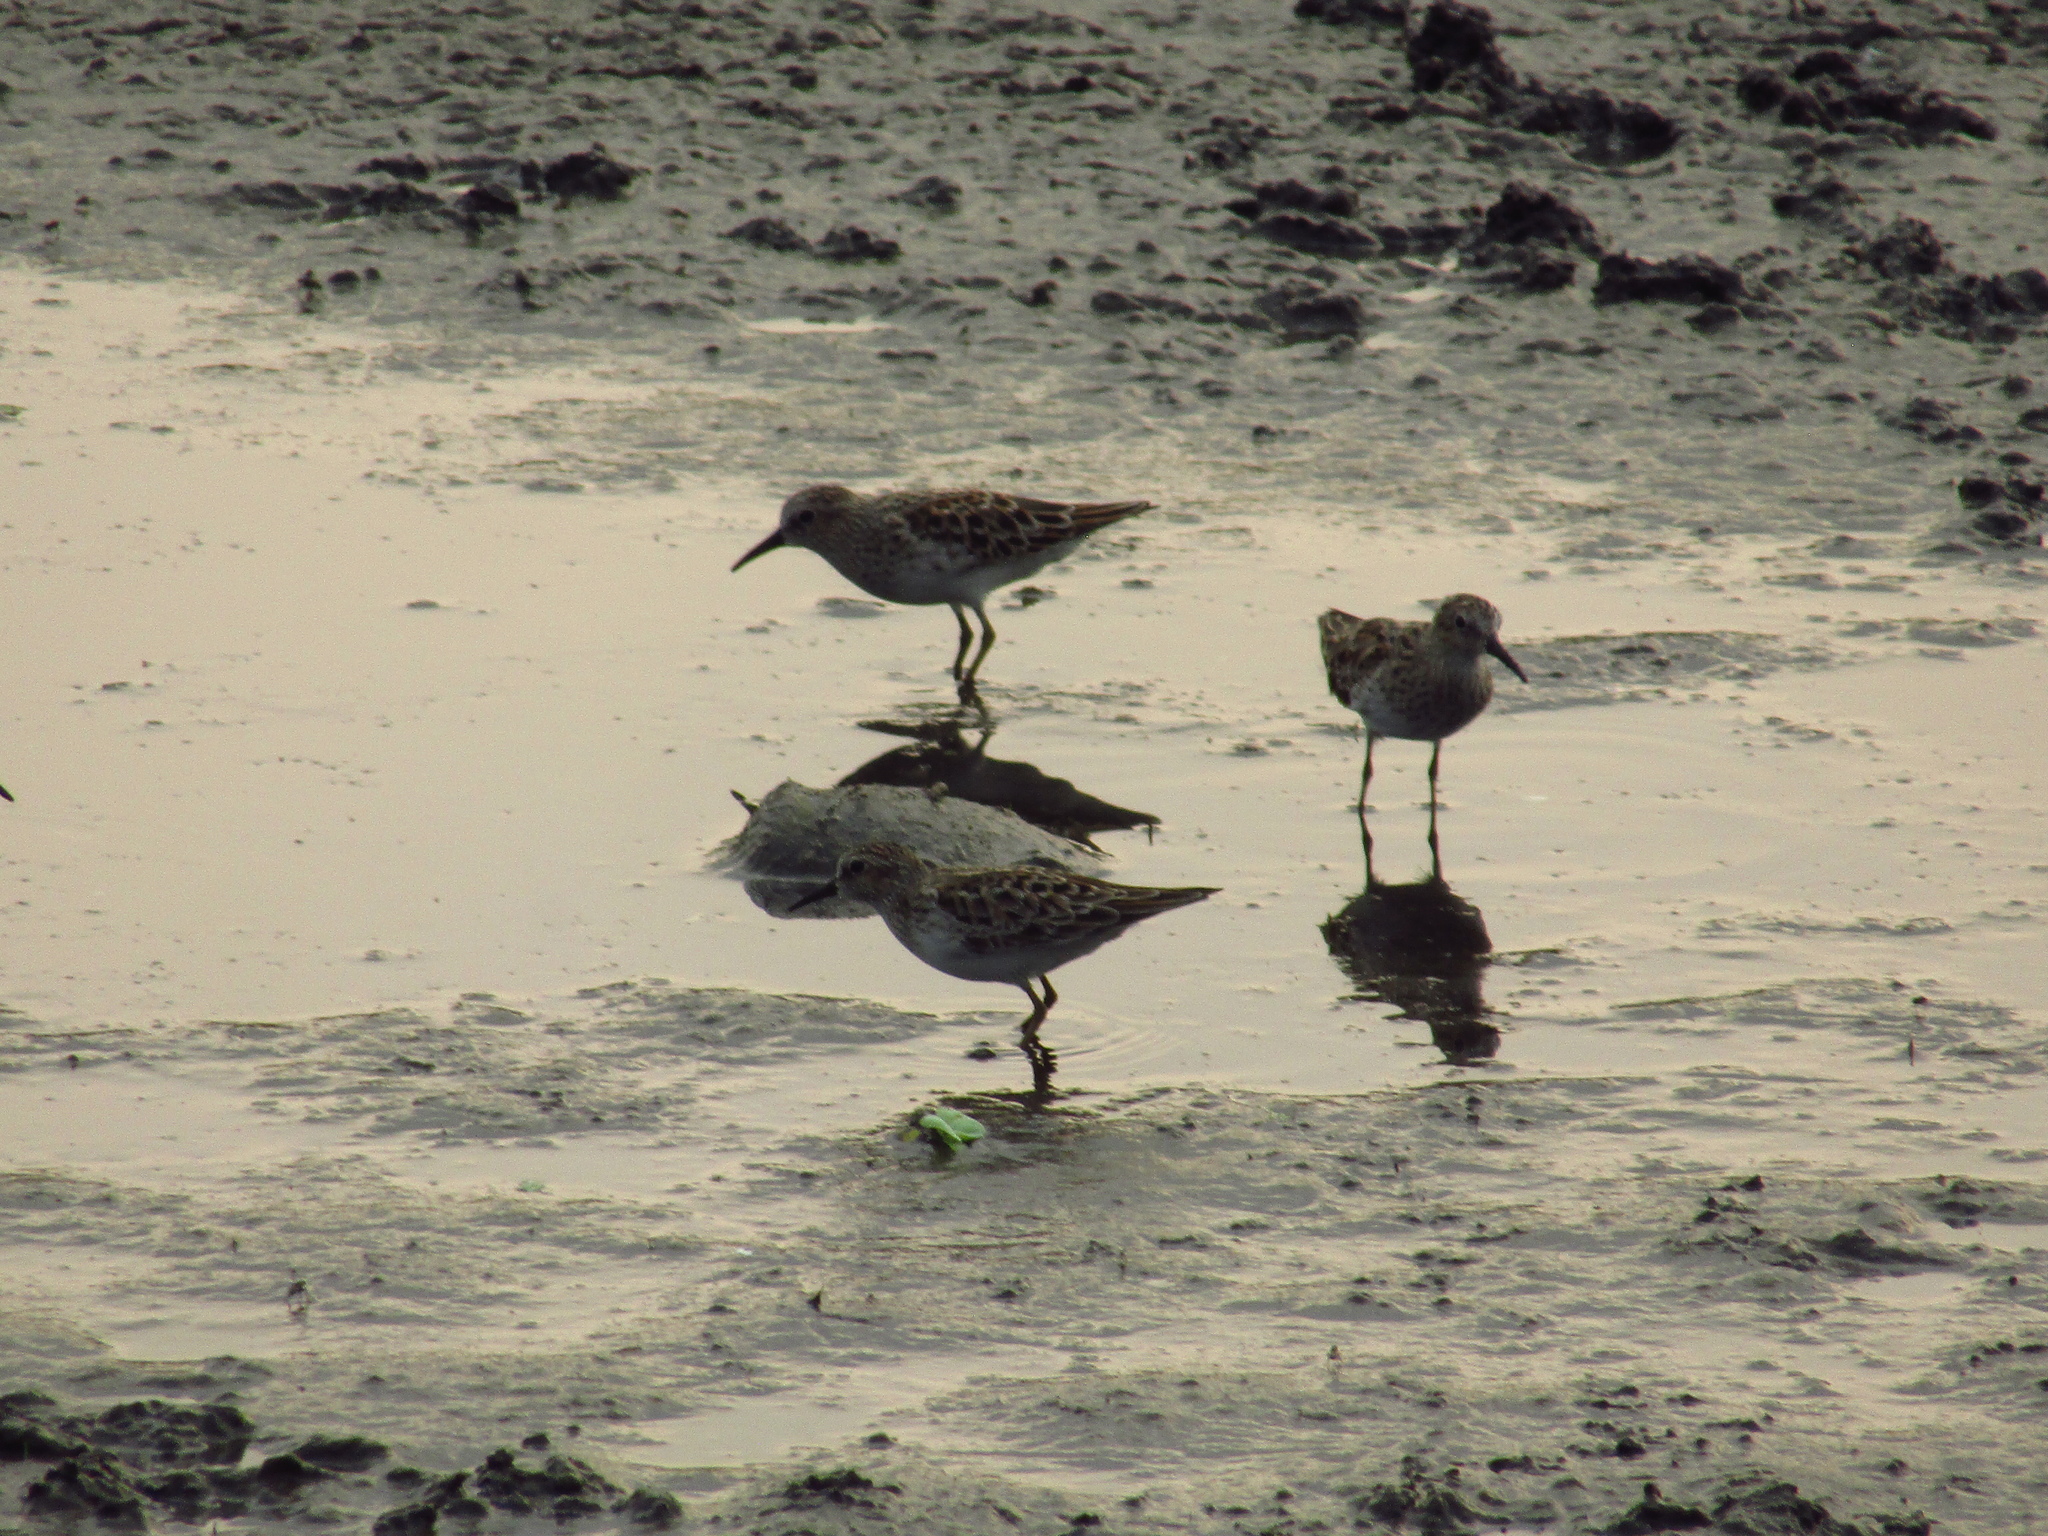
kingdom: Animalia
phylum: Chordata
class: Aves
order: Charadriiformes
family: Scolopacidae
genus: Calidris
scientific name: Calidris minutilla
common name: Least sandpiper
